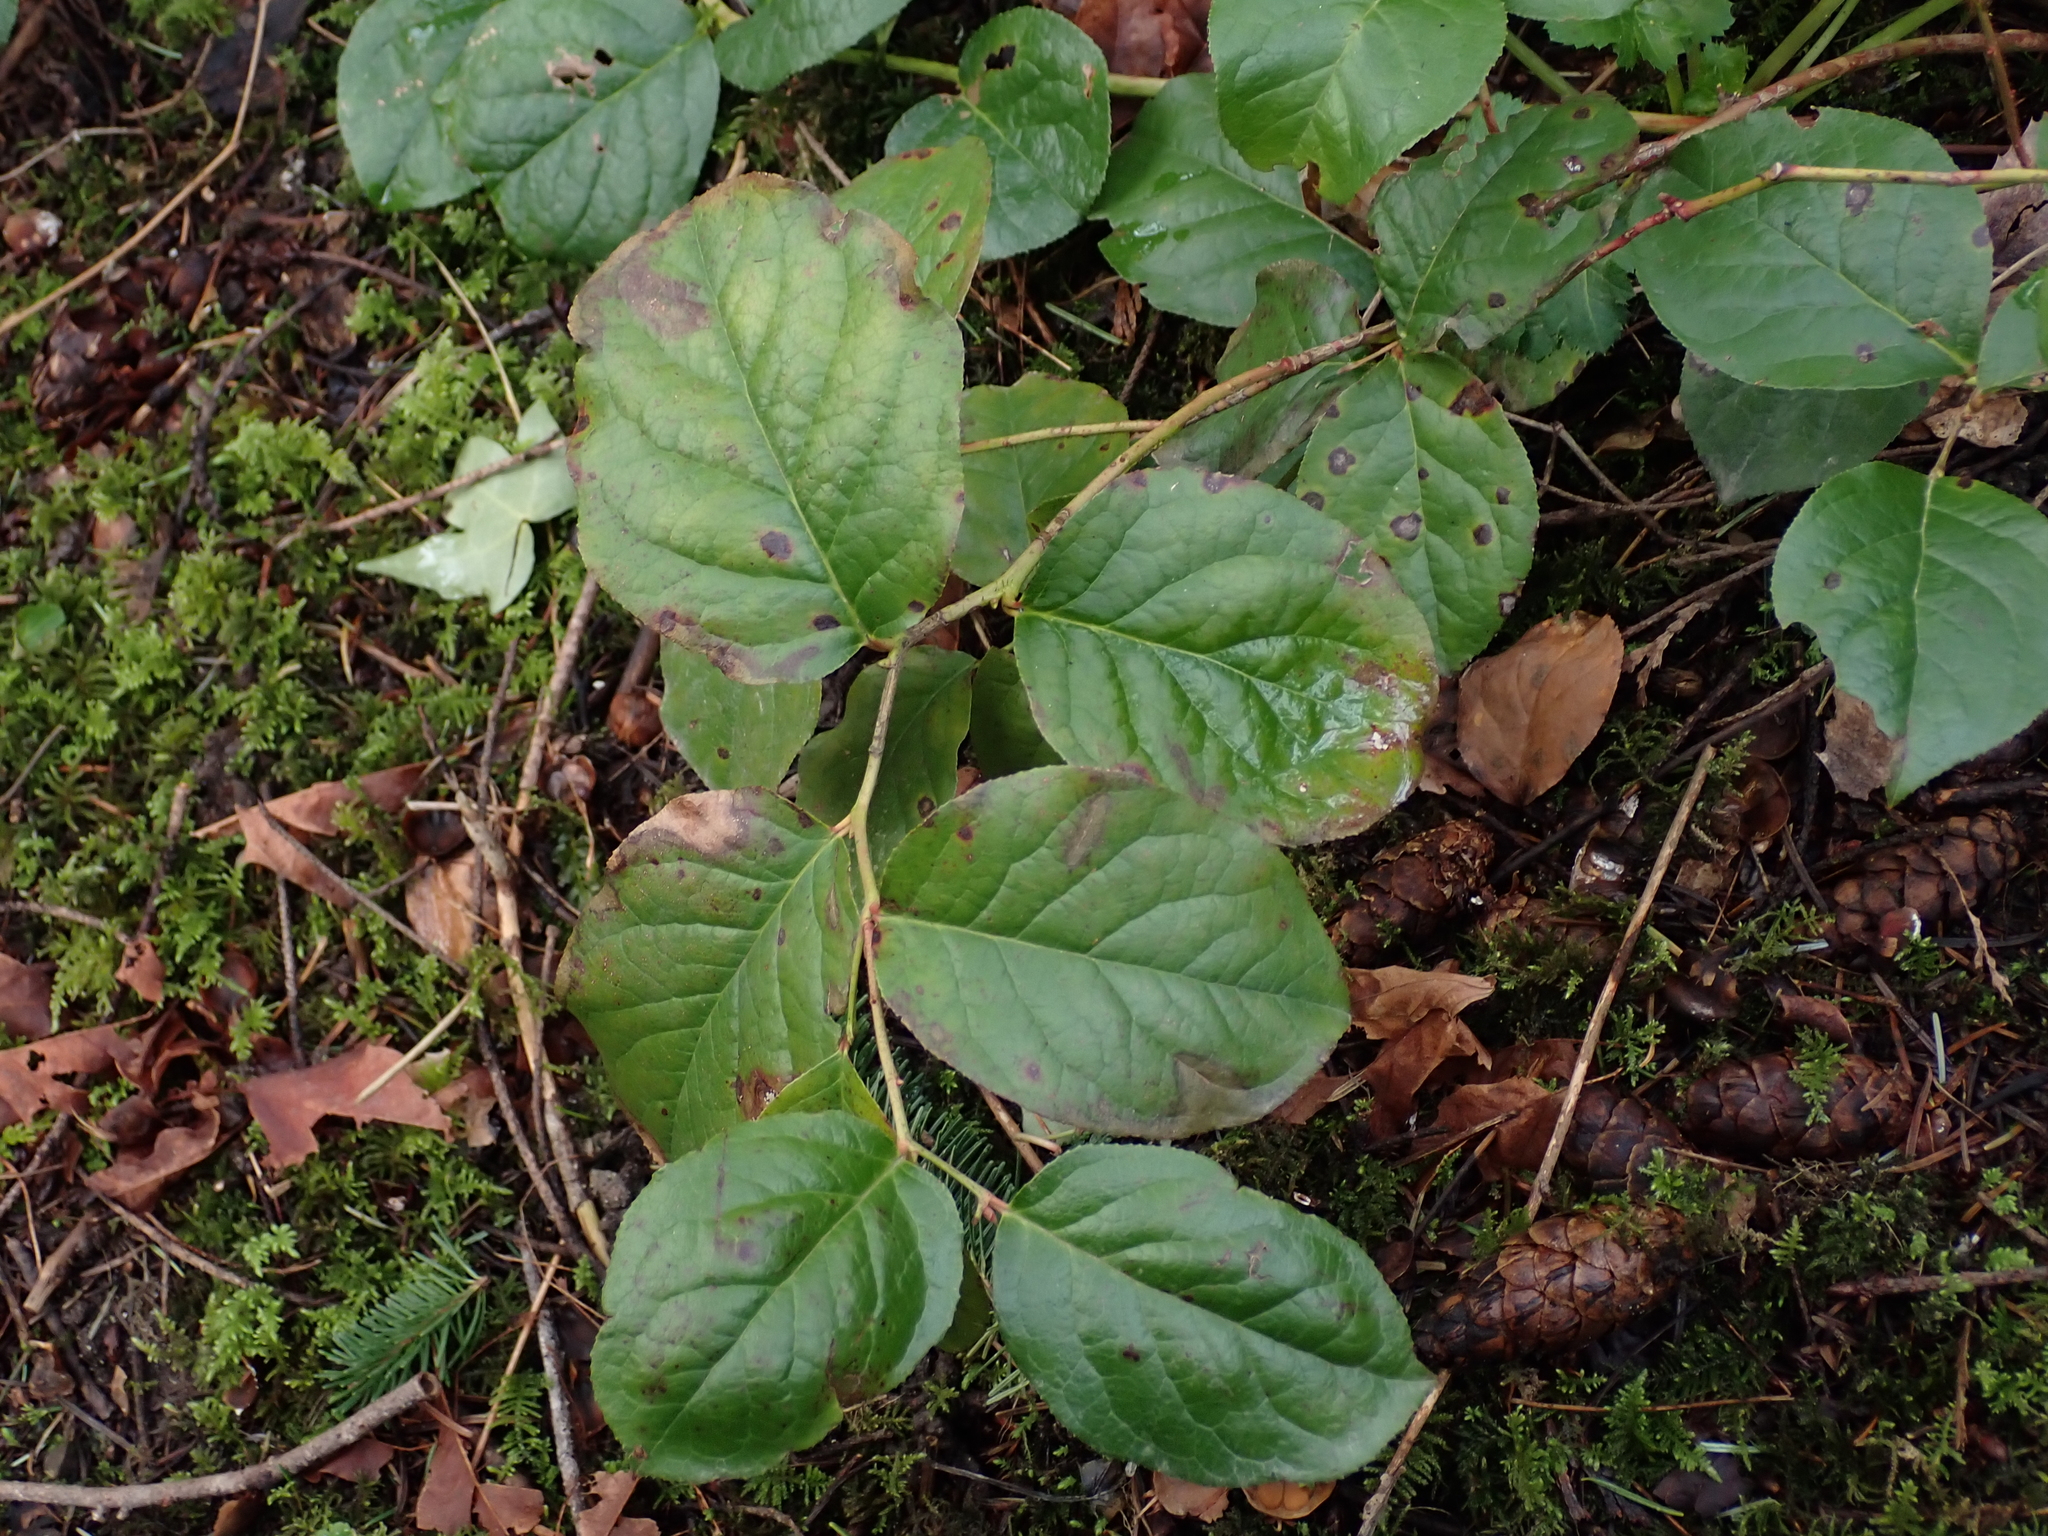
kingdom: Plantae
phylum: Tracheophyta
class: Magnoliopsida
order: Ericales
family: Ericaceae
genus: Gaultheria
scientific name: Gaultheria shallon
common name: Shallon
